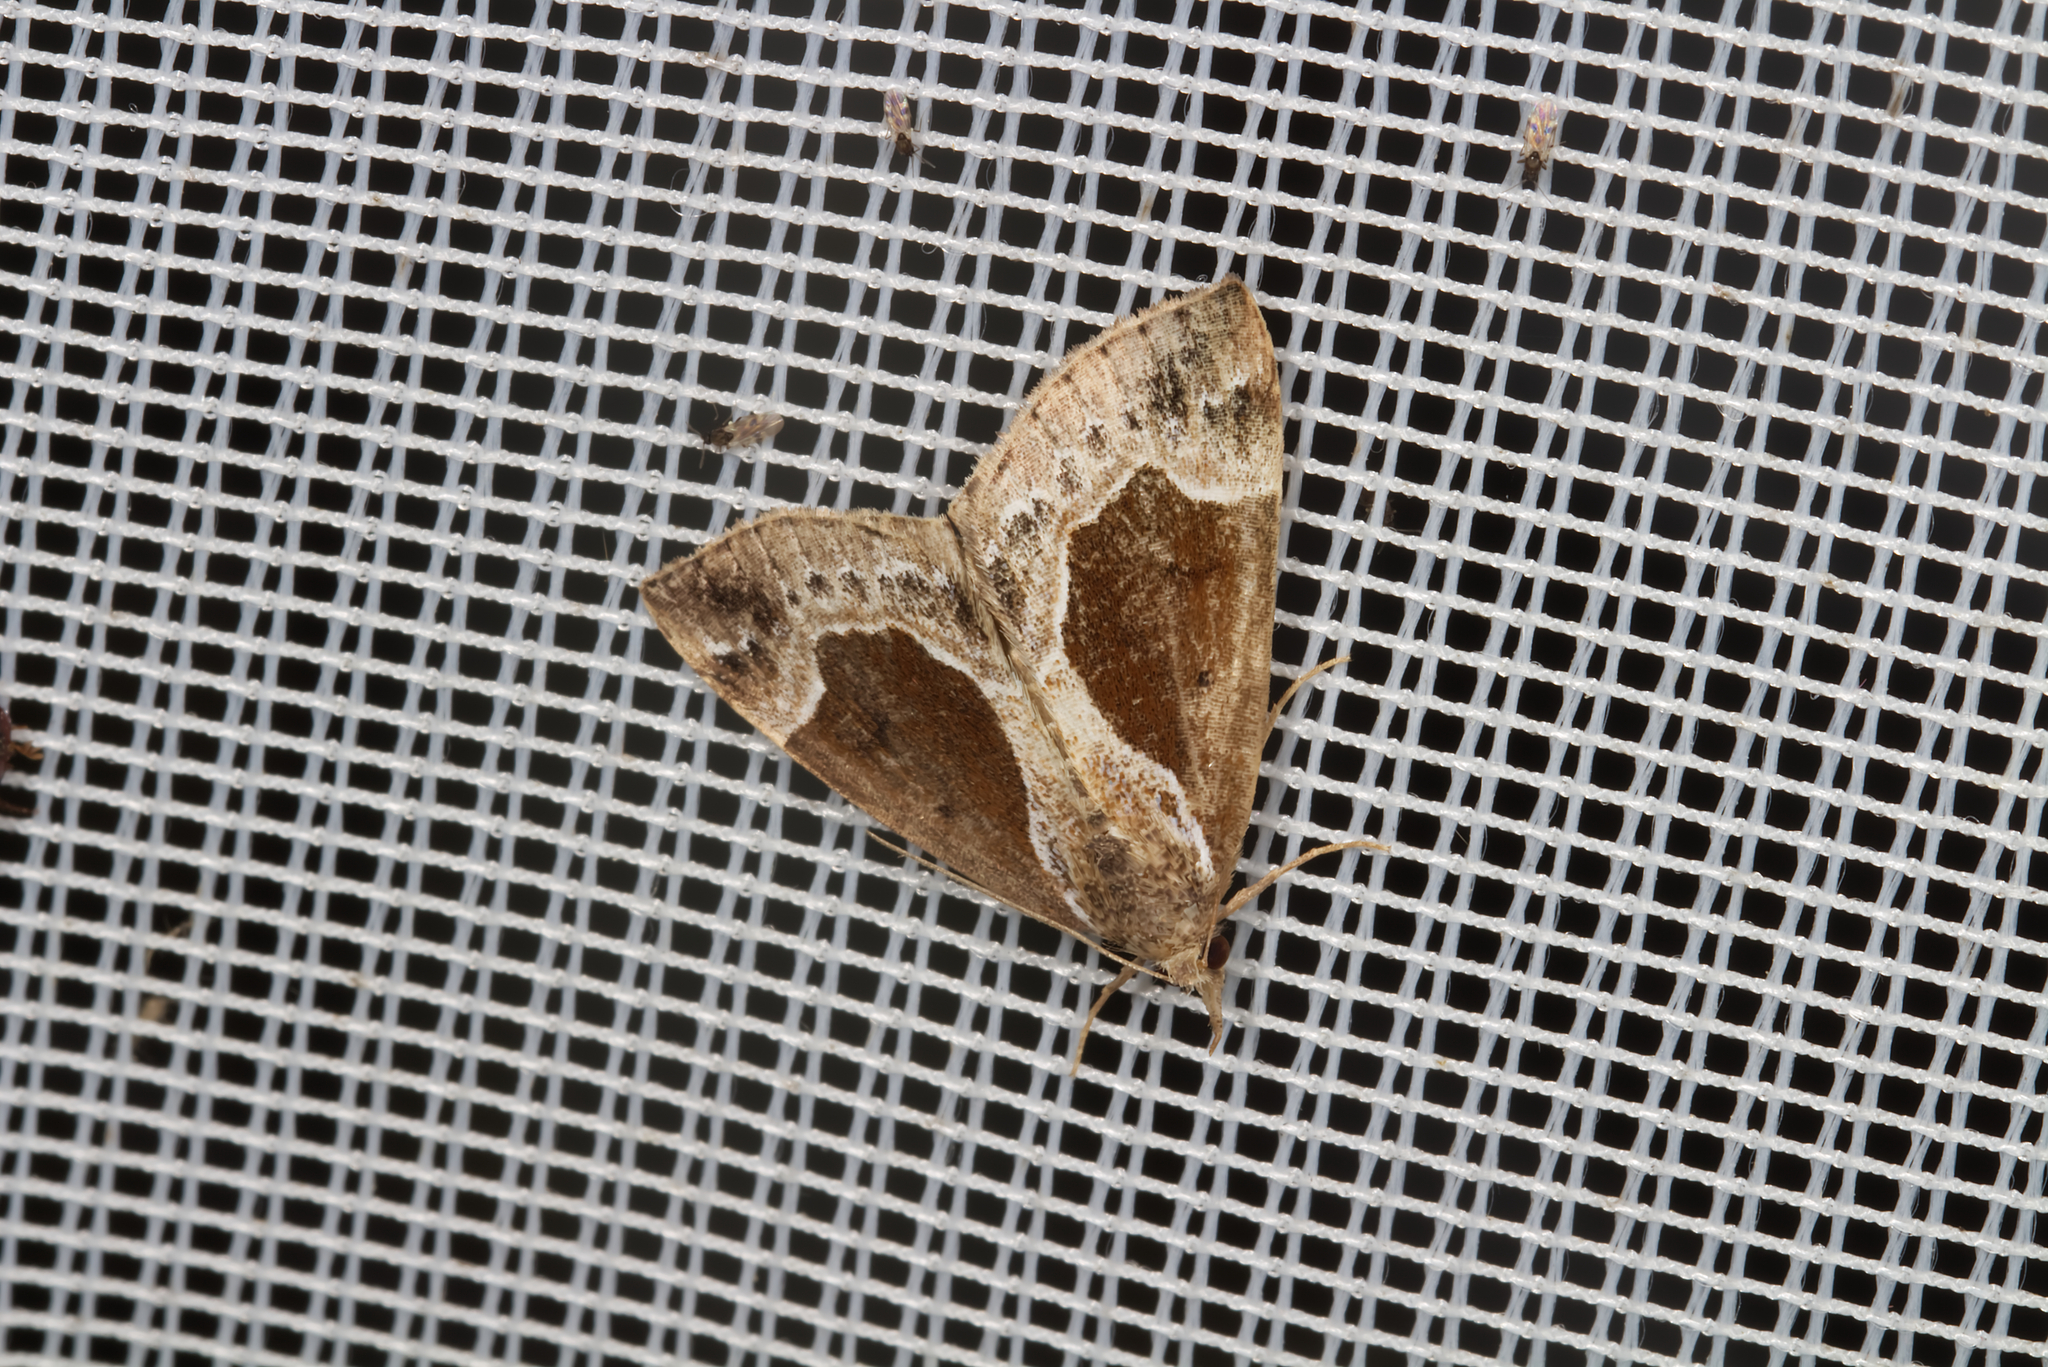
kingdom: Animalia
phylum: Arthropoda
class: Insecta
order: Lepidoptera
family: Erebidae
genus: Hypena
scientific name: Hypena crassalis
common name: Beautiful snout
